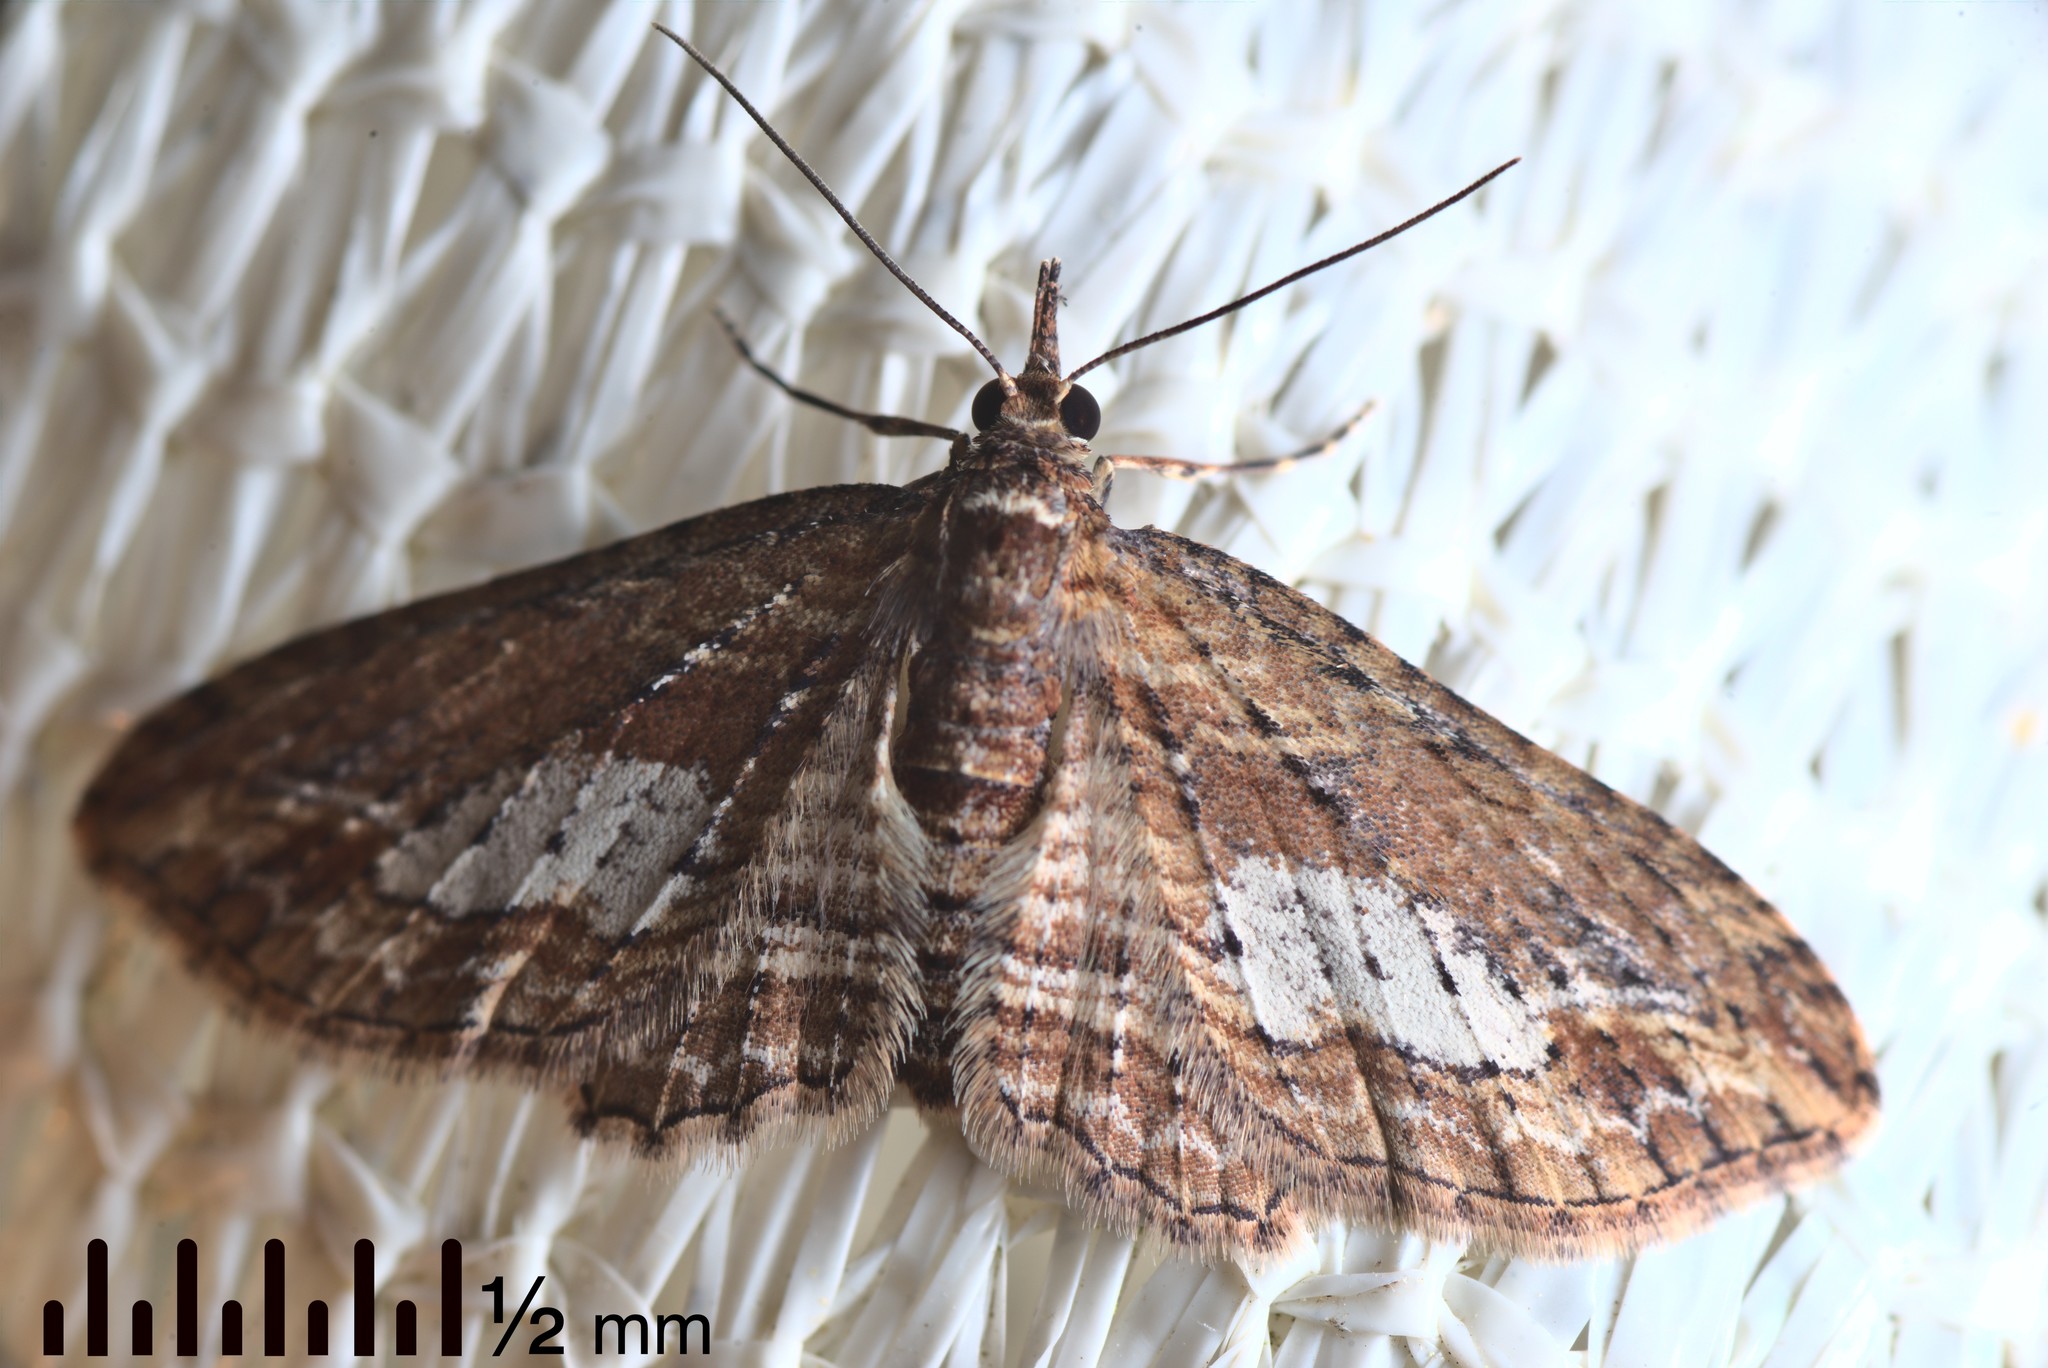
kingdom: Animalia
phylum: Arthropoda
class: Insecta
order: Lepidoptera
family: Geometridae
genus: Chloroclystis
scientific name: Chloroclystis filata
